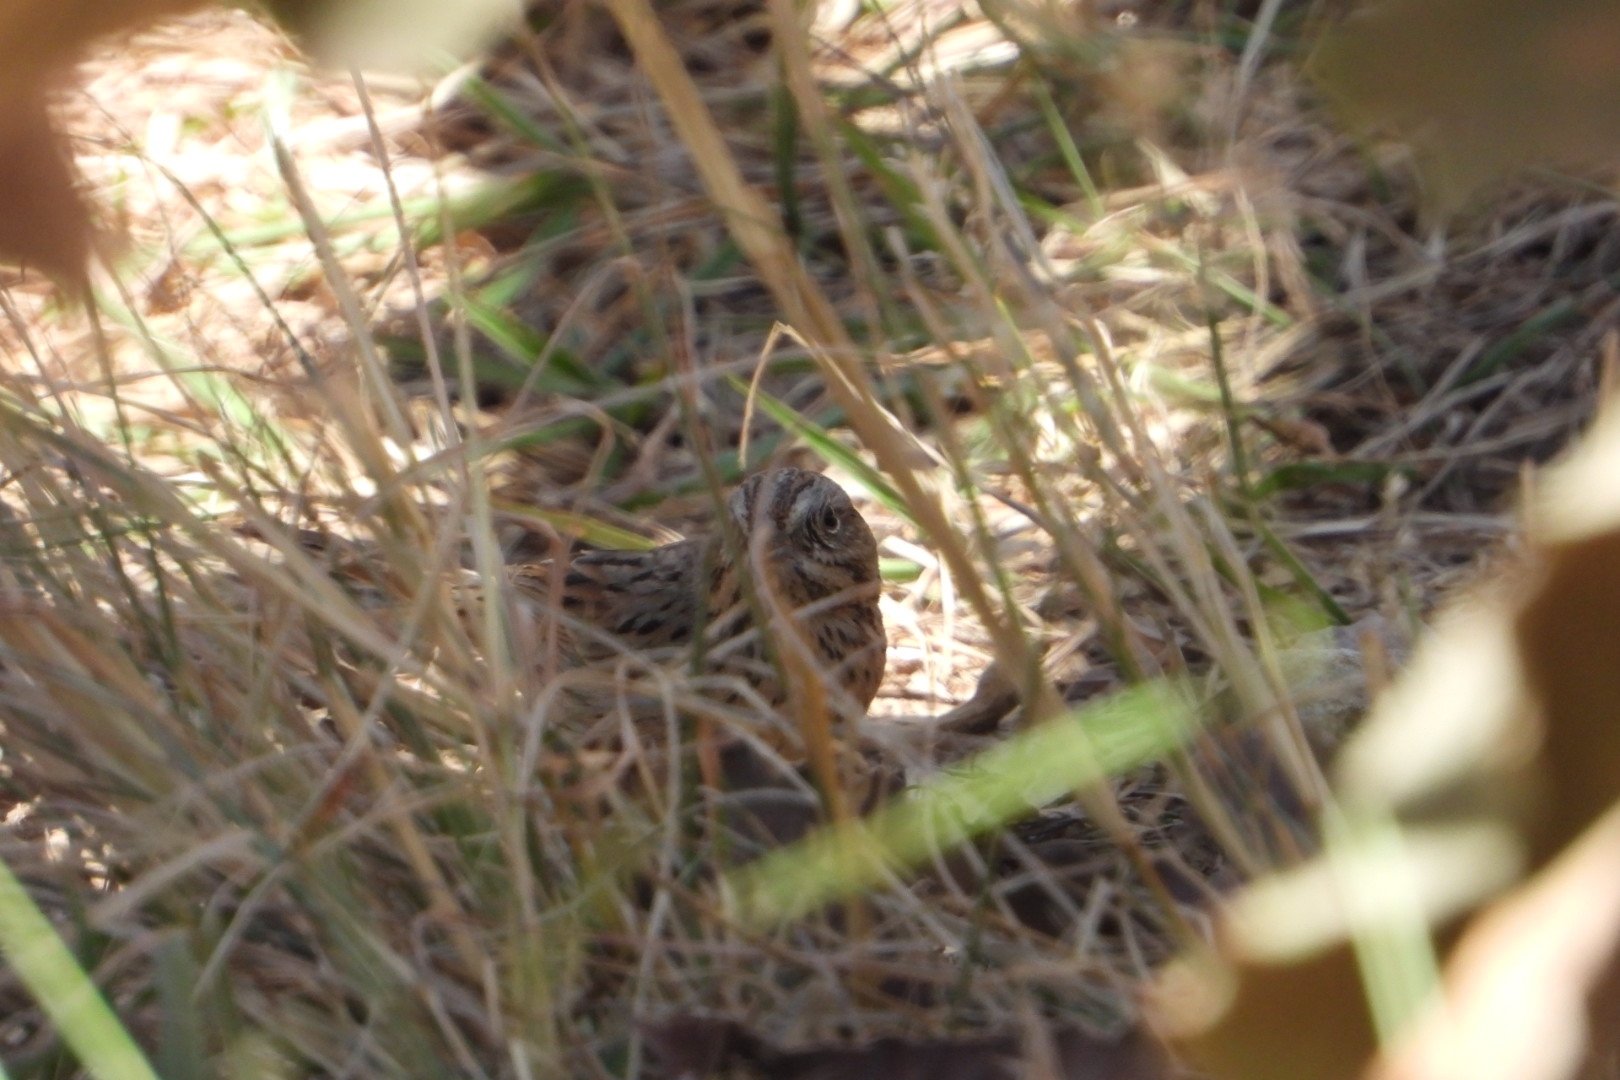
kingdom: Animalia
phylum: Chordata
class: Aves
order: Passeriformes
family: Passerellidae
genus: Melospiza
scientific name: Melospiza lincolnii
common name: Lincoln's sparrow
